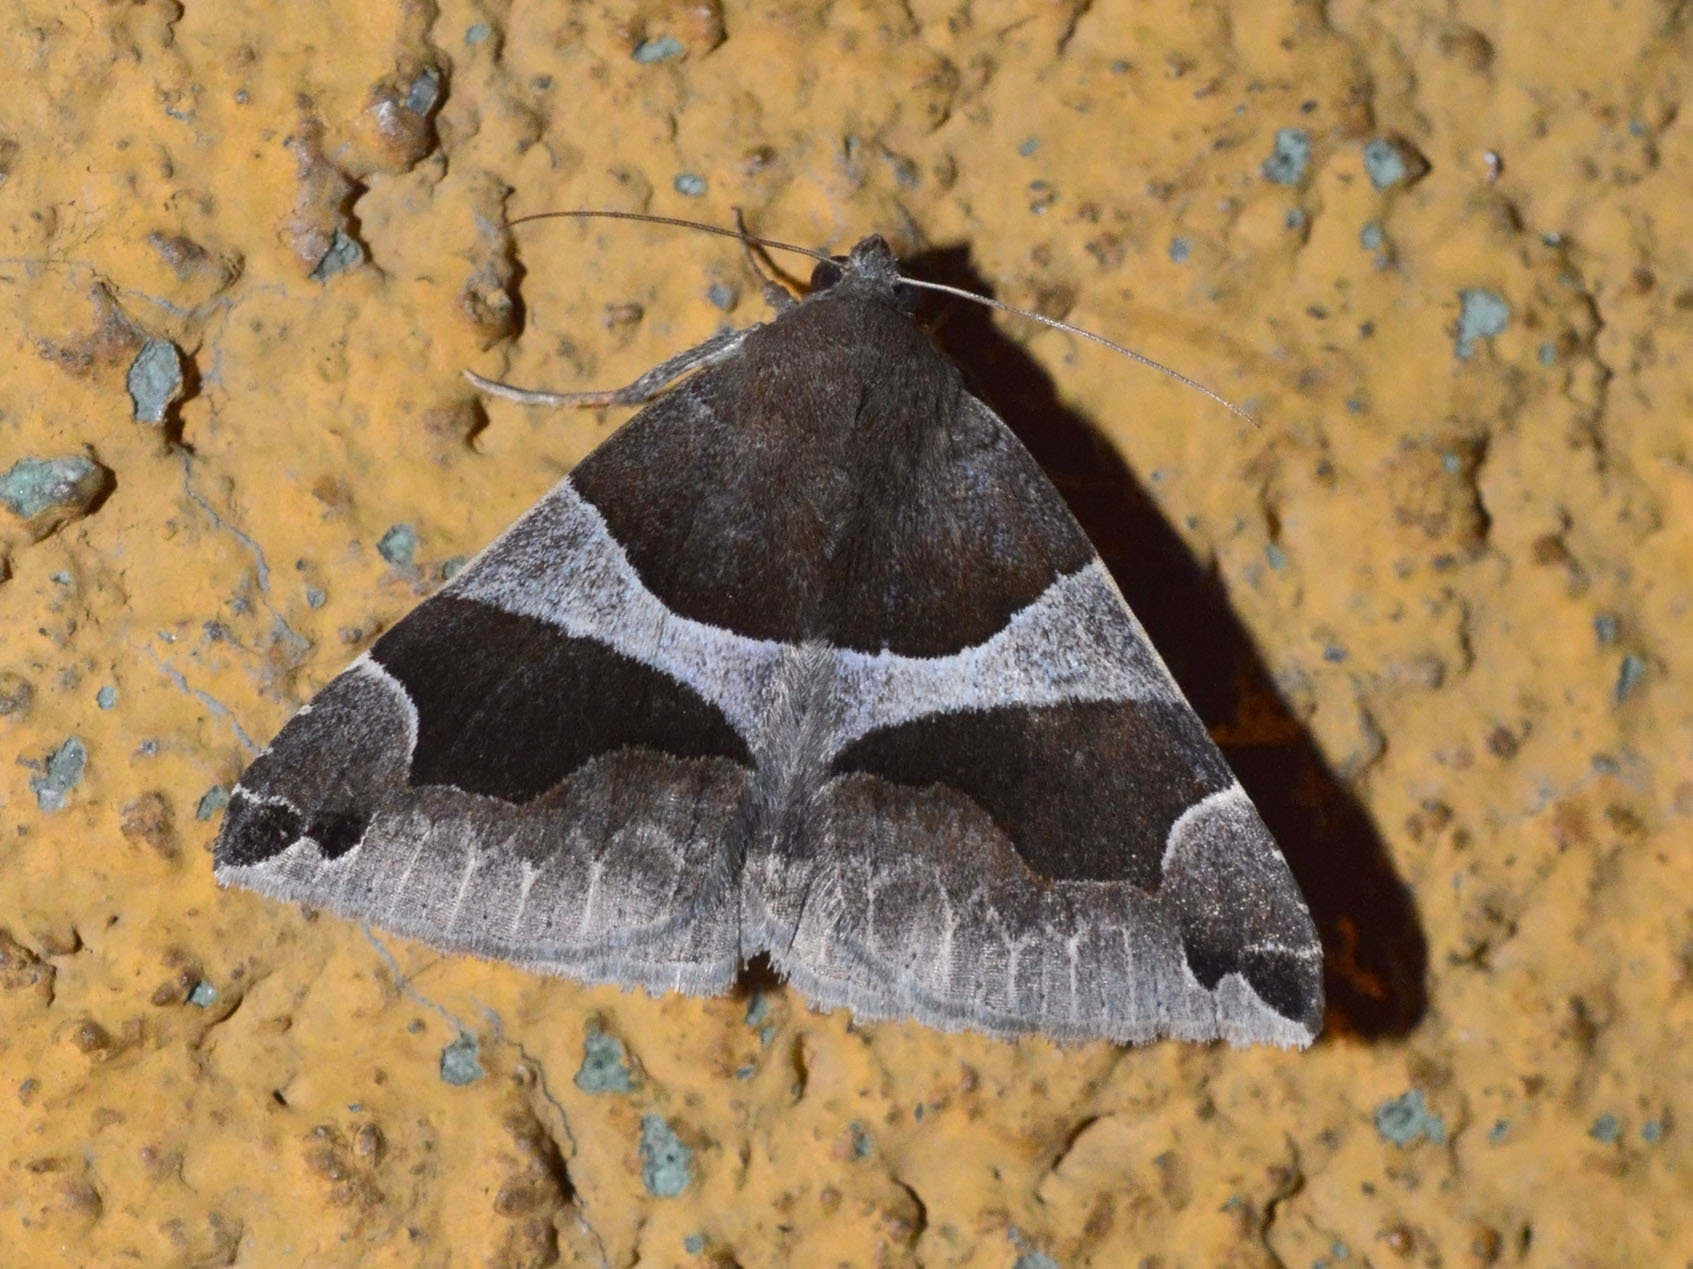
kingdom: Animalia
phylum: Arthropoda
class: Insecta
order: Lepidoptera
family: Erebidae
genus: Dysgonia
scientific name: Dysgonia algira
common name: Passenger
